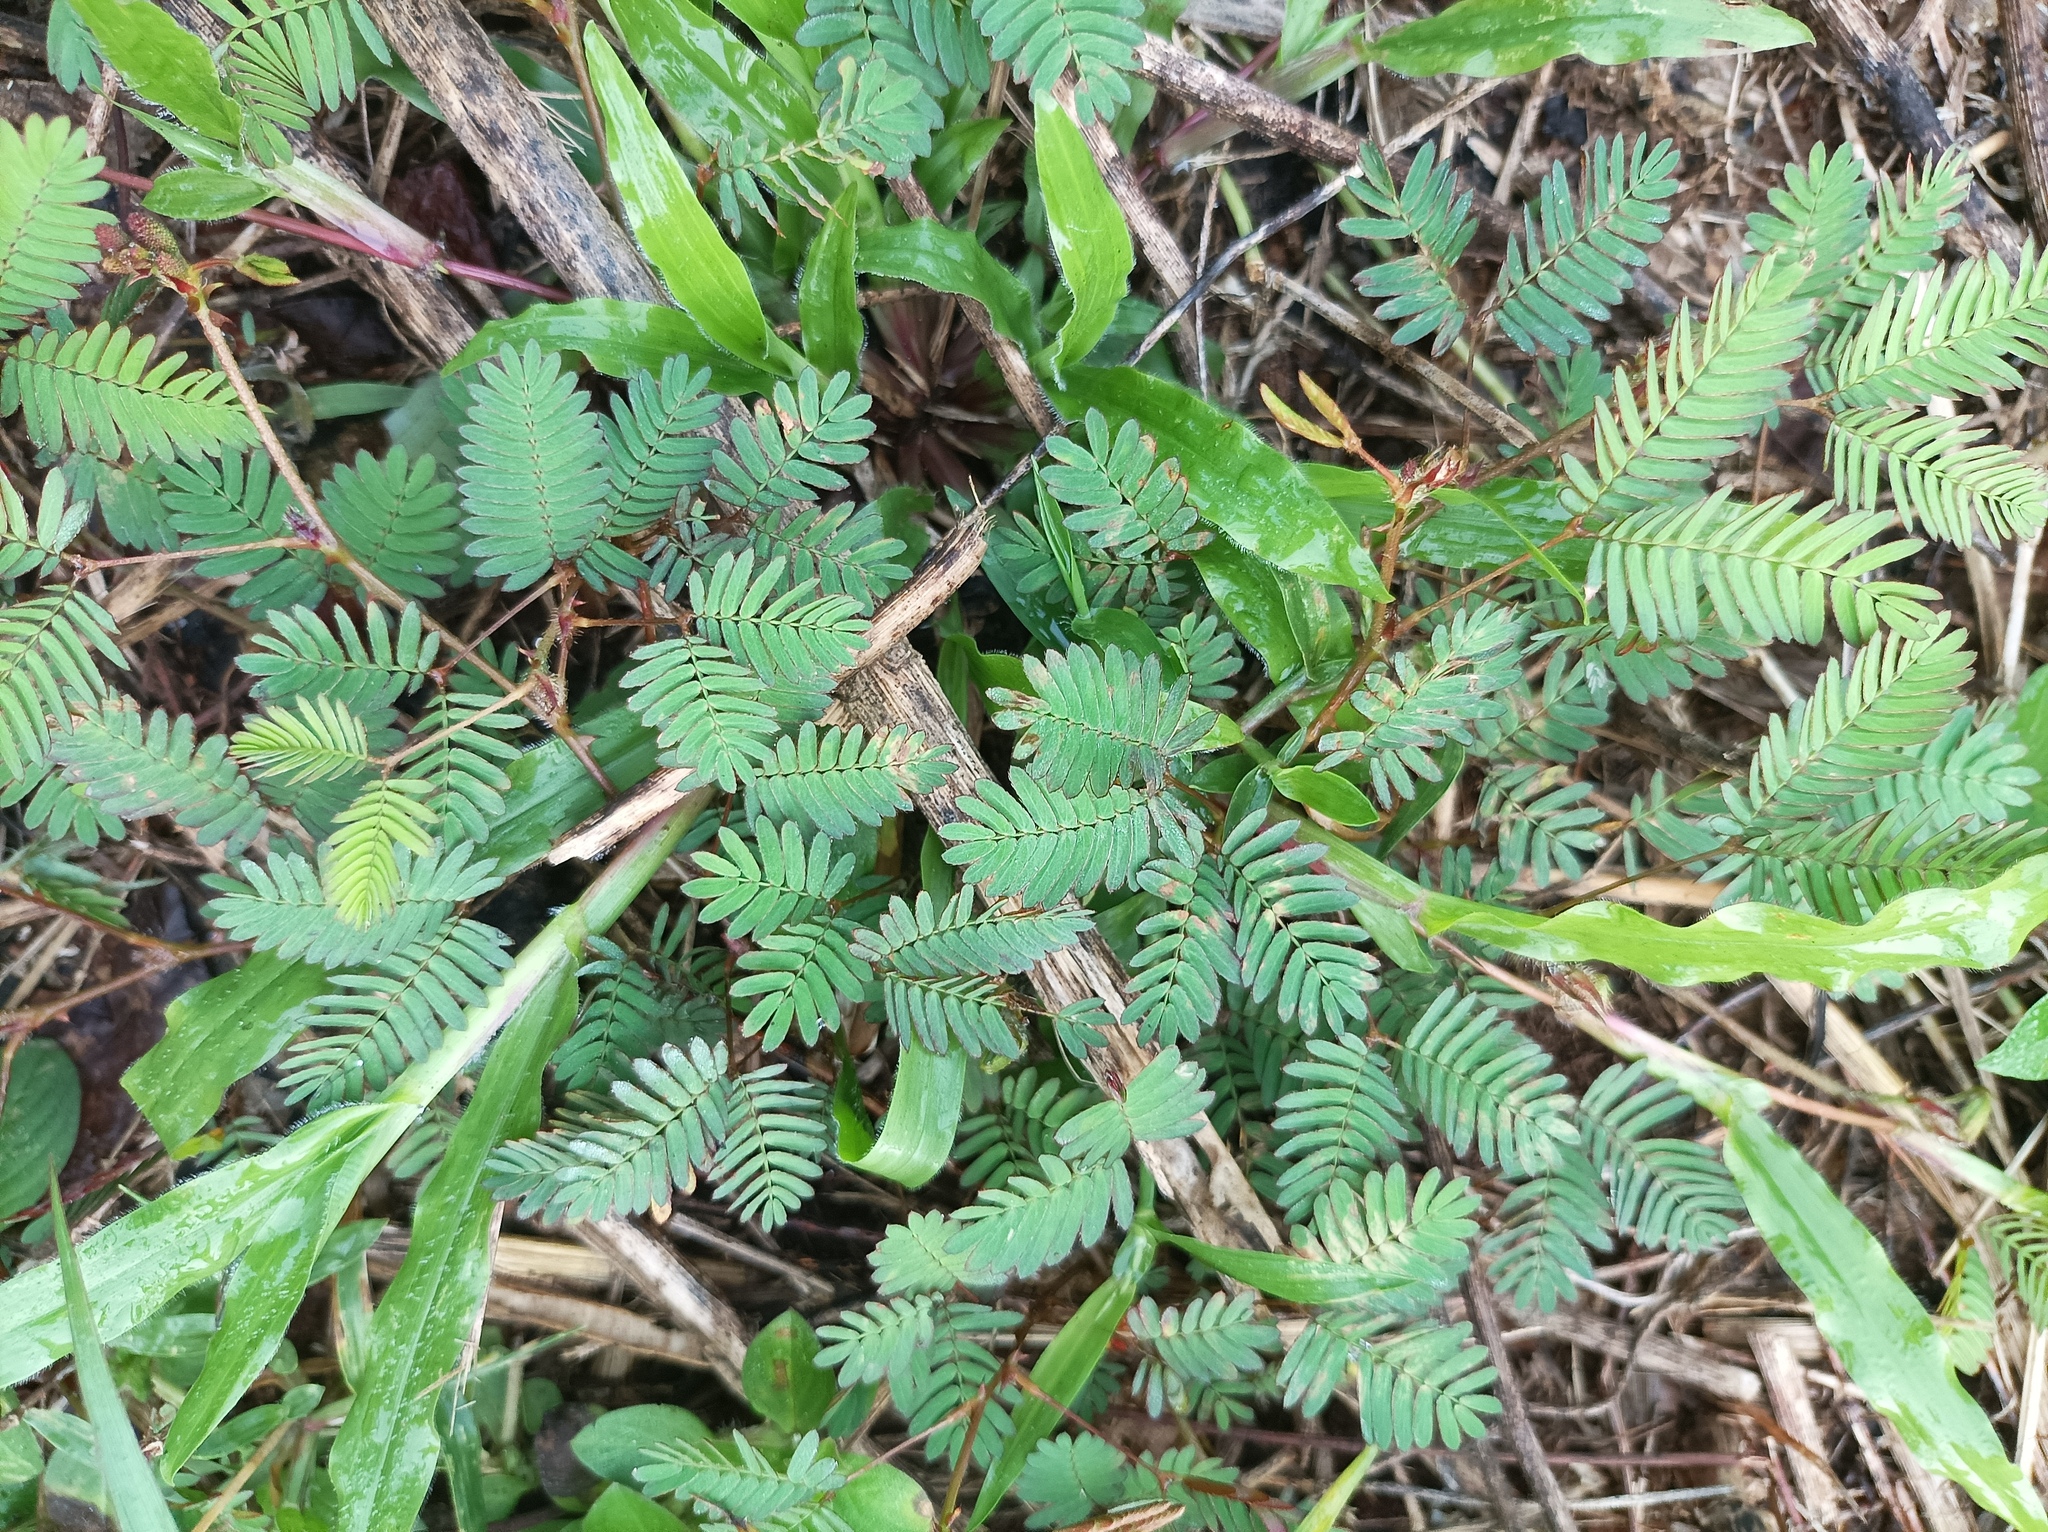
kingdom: Plantae
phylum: Tracheophyta
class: Magnoliopsida
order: Fabales
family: Fabaceae
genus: Mimosa
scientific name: Mimosa pudica
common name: Sensitive plant
